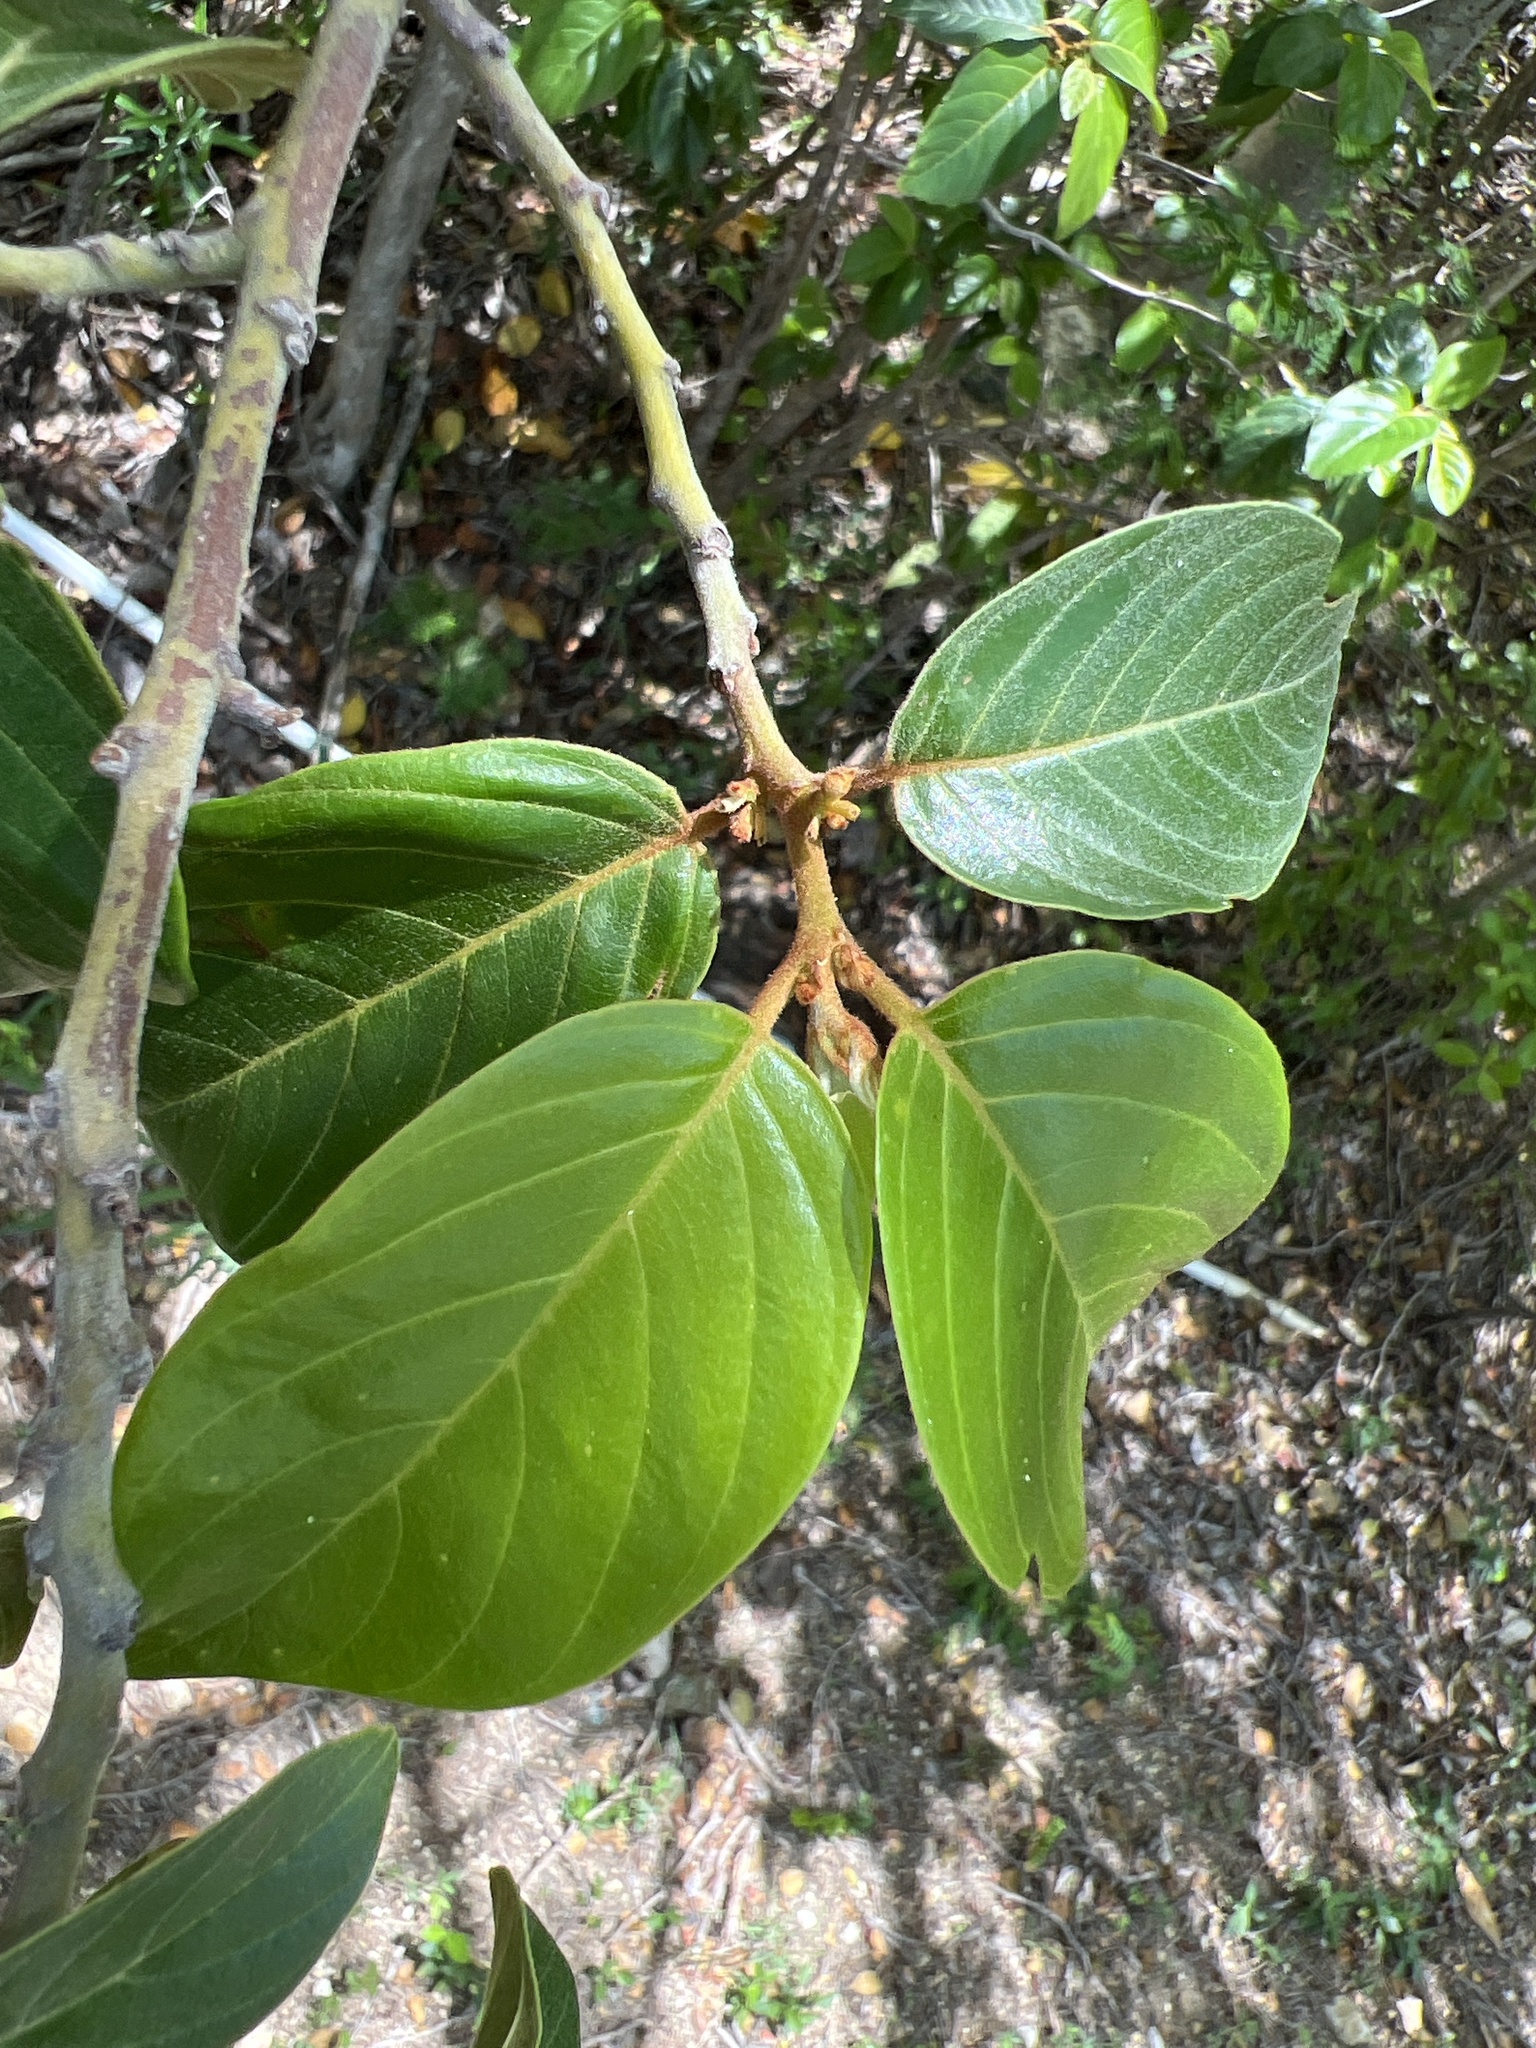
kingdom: Plantae
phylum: Tracheophyta
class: Magnoliopsida
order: Rosales
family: Rhamnaceae
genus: Colubrina
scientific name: Colubrina arborescens
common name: Wild coffee
